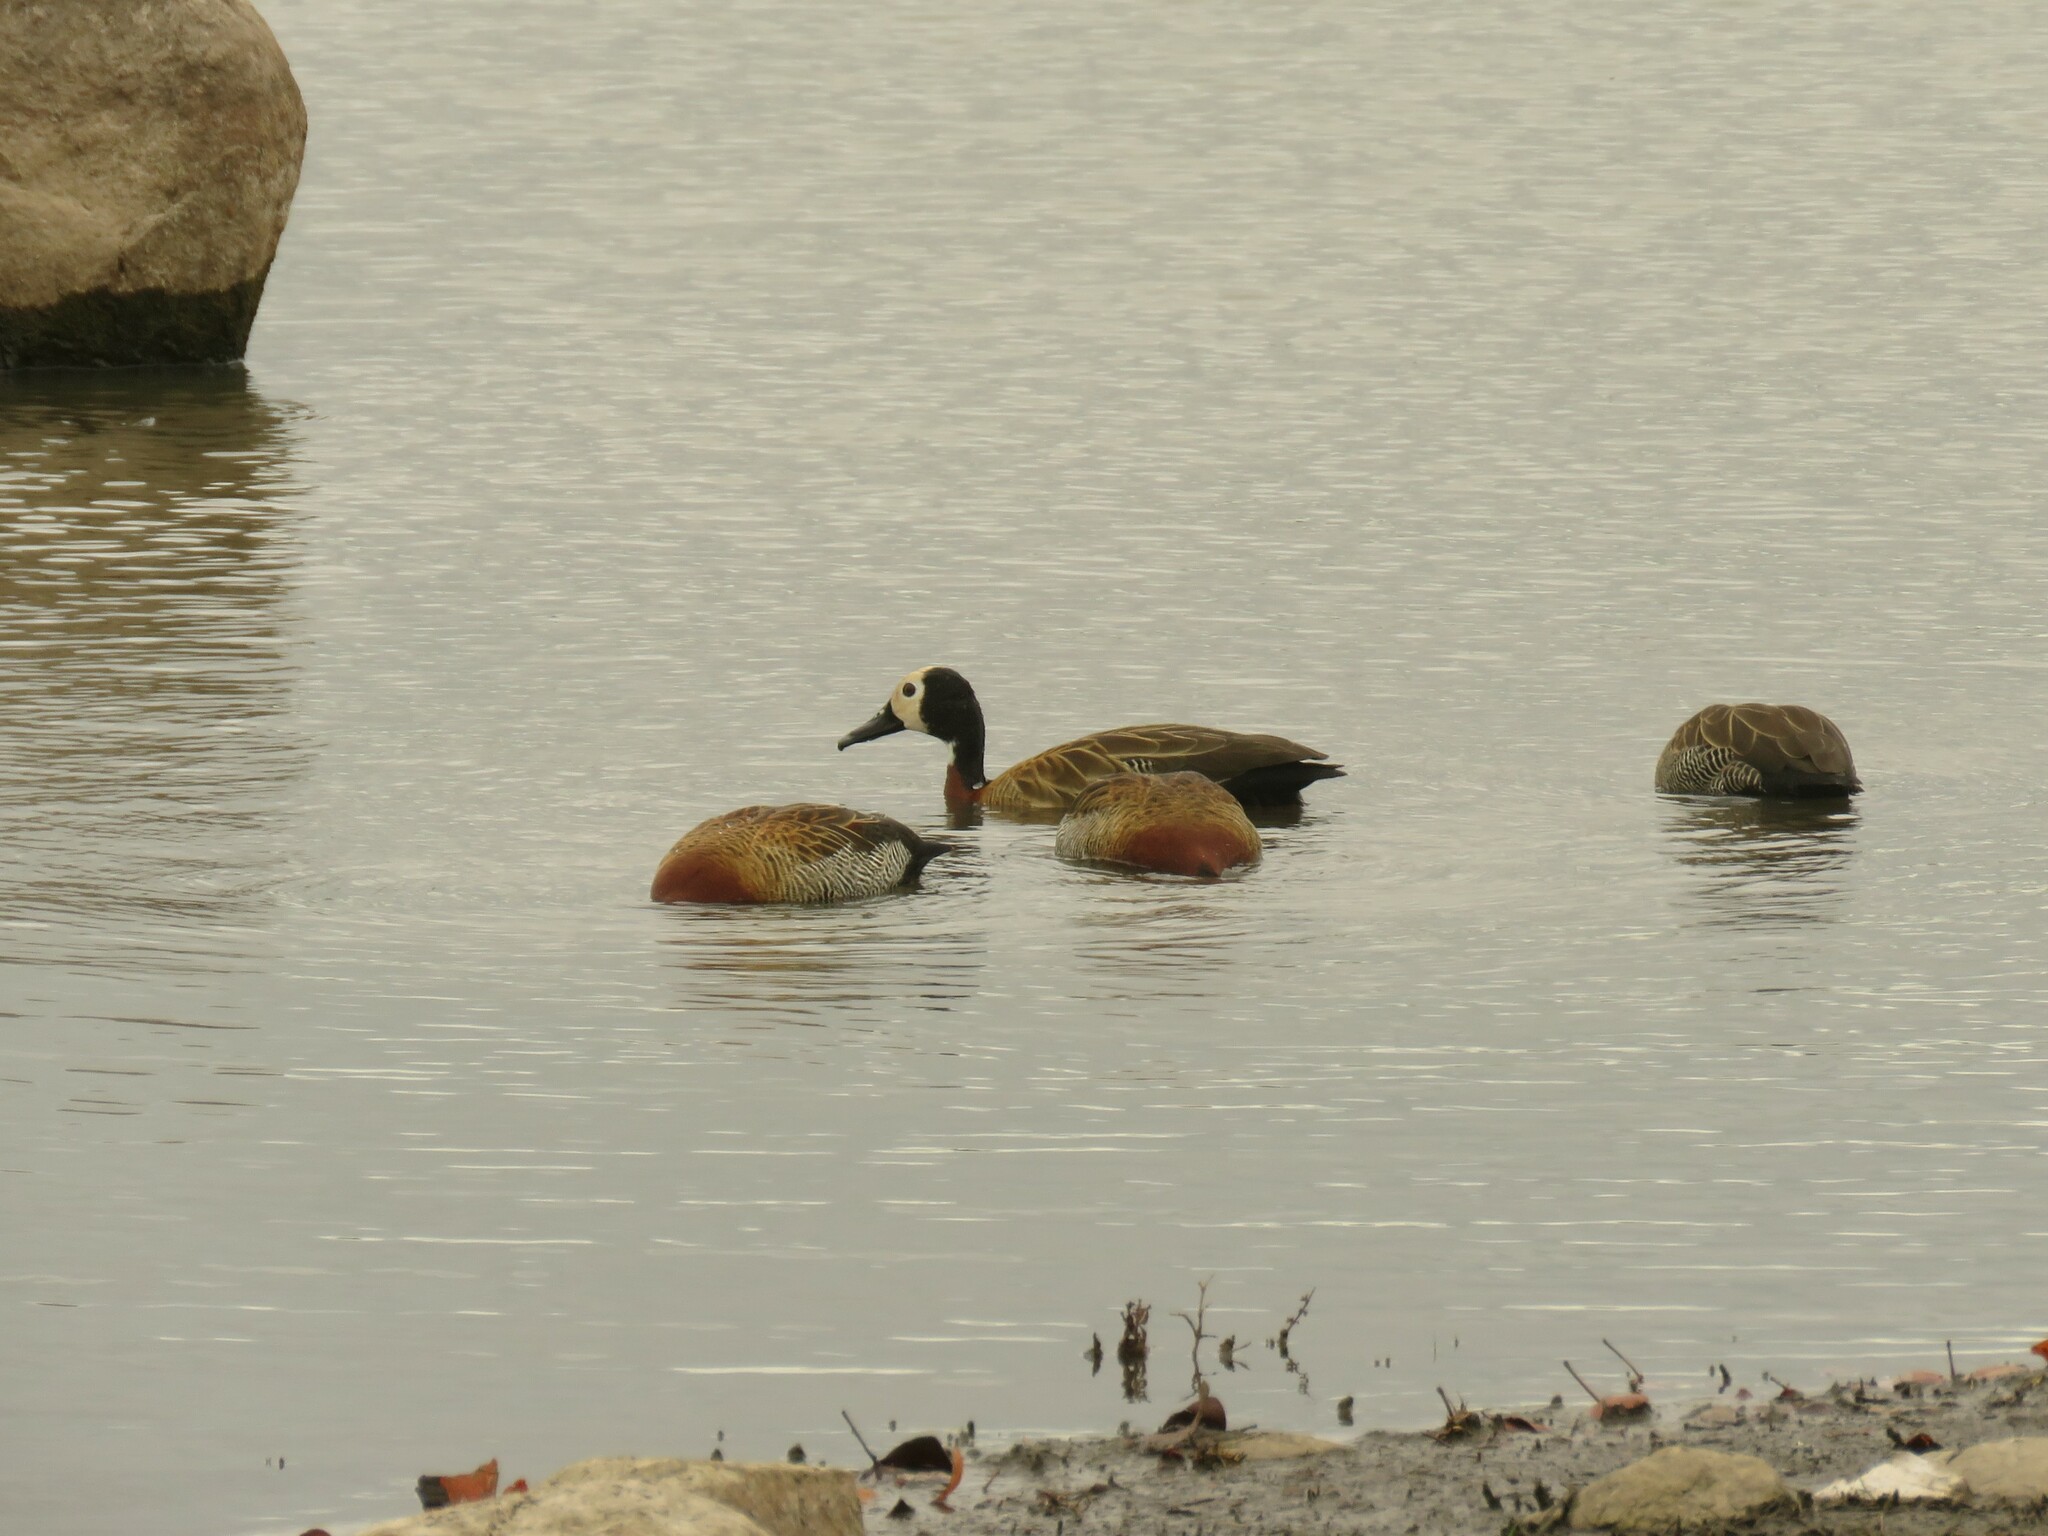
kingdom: Animalia
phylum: Chordata
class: Aves
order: Anseriformes
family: Anatidae
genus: Dendrocygna
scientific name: Dendrocygna viduata
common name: White-faced whistling duck
